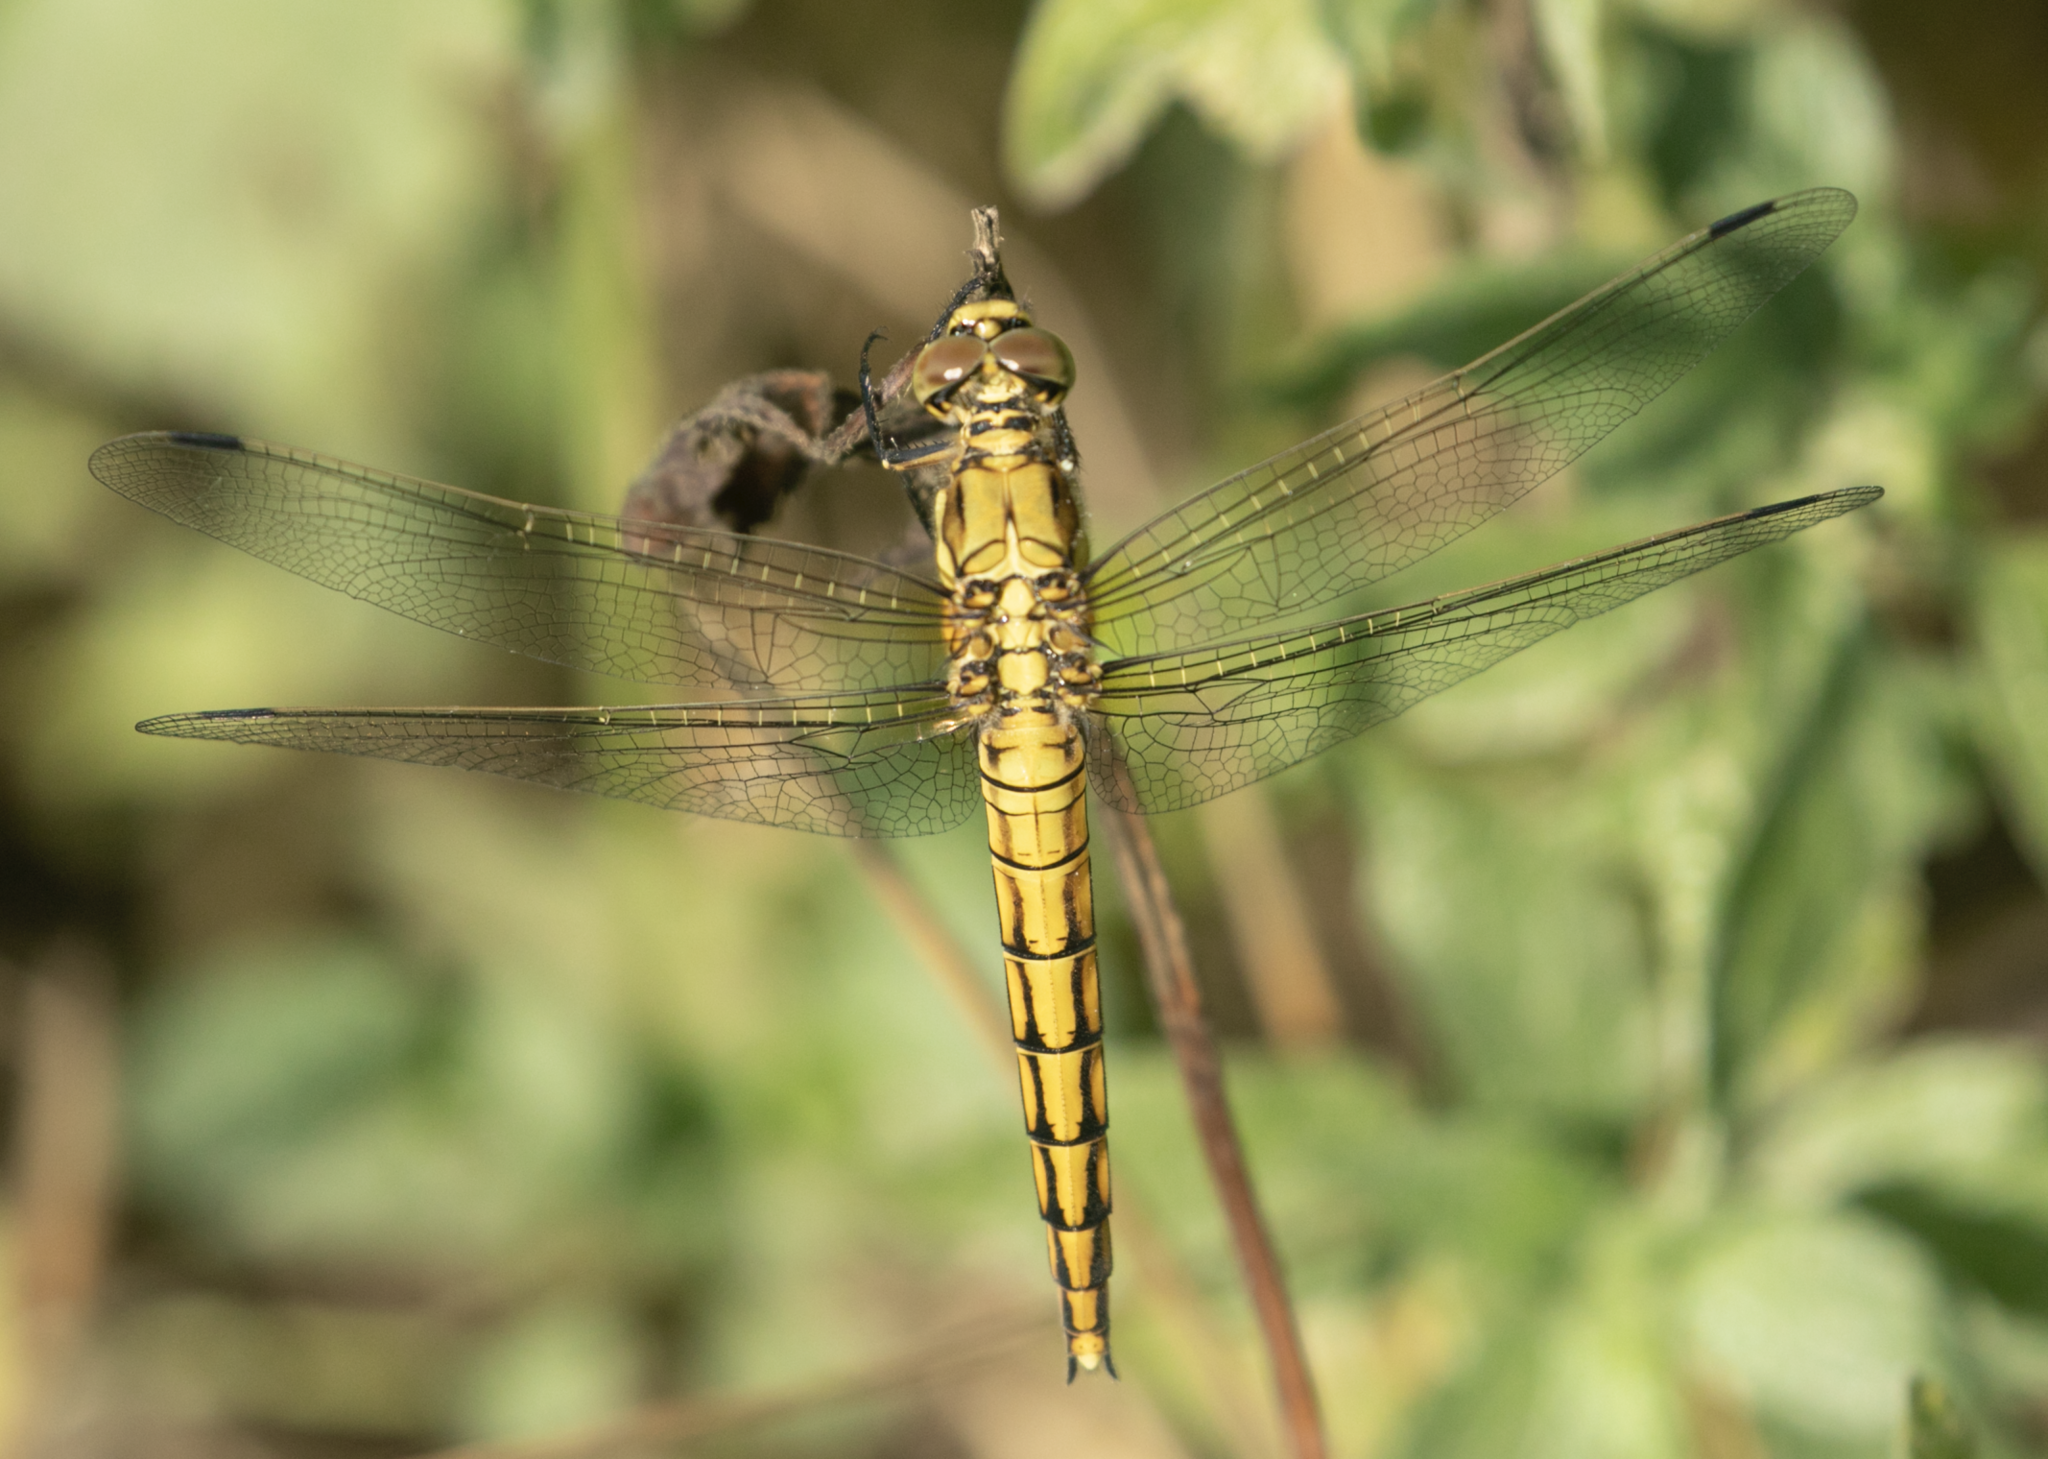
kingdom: Animalia
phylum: Arthropoda
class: Insecta
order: Odonata
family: Libellulidae
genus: Orthetrum
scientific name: Orthetrum cancellatum
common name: Black-tailed skimmer
